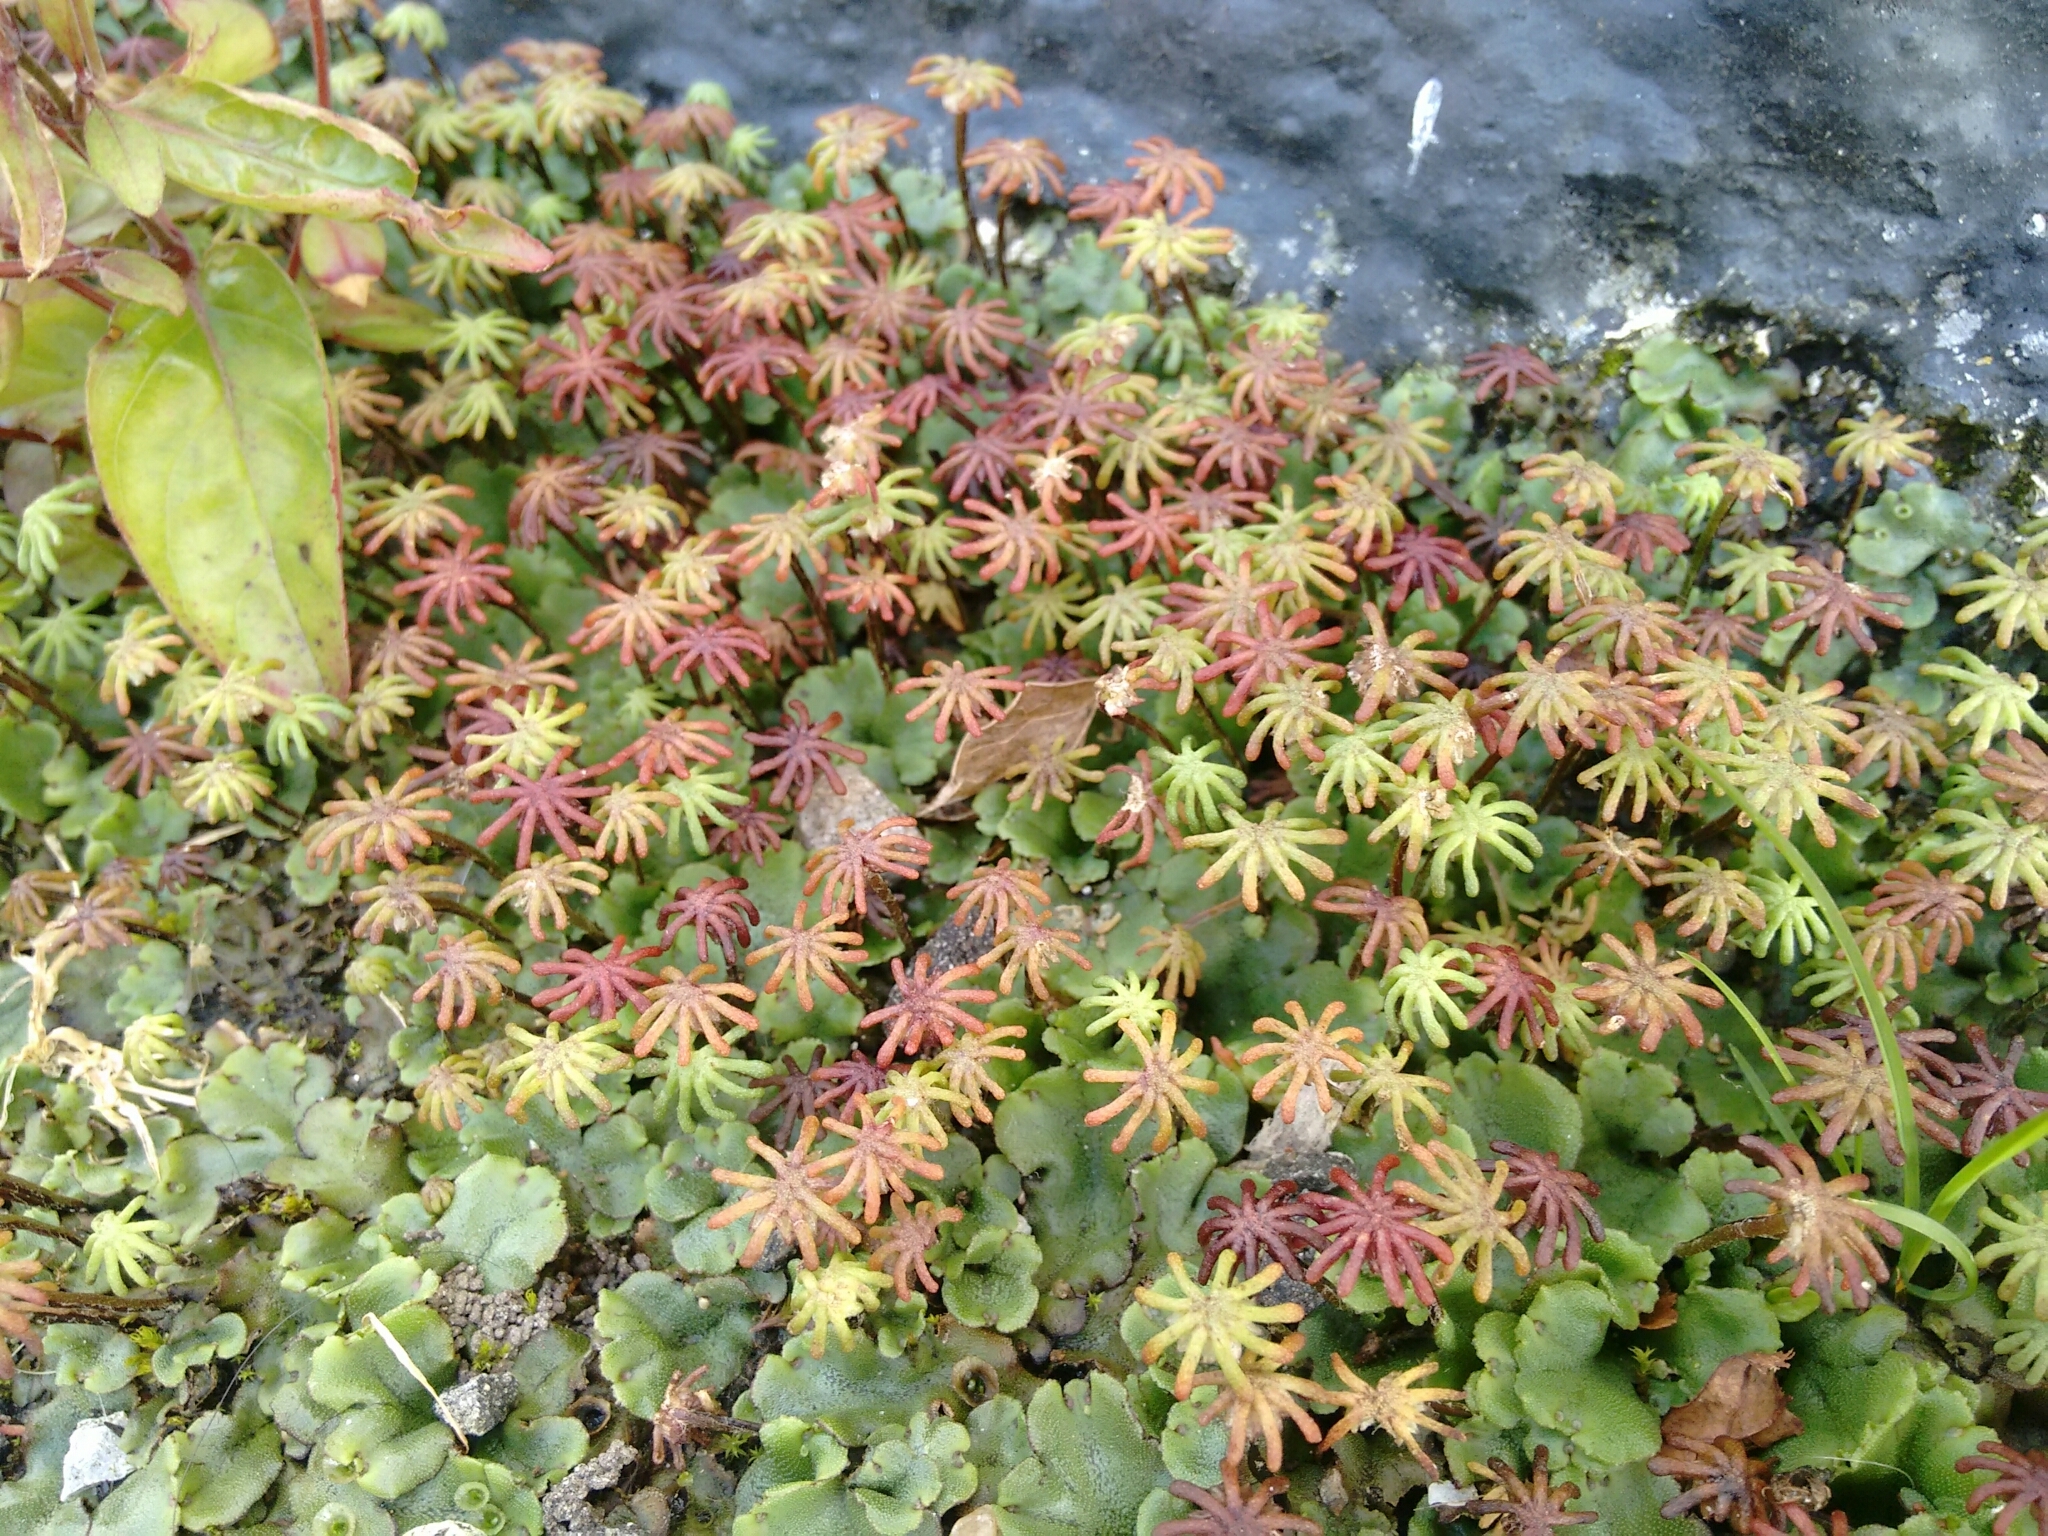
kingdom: Plantae
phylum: Marchantiophyta
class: Marchantiopsida
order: Marchantiales
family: Marchantiaceae
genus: Marchantia
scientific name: Marchantia polymorpha
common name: Common liverwort
